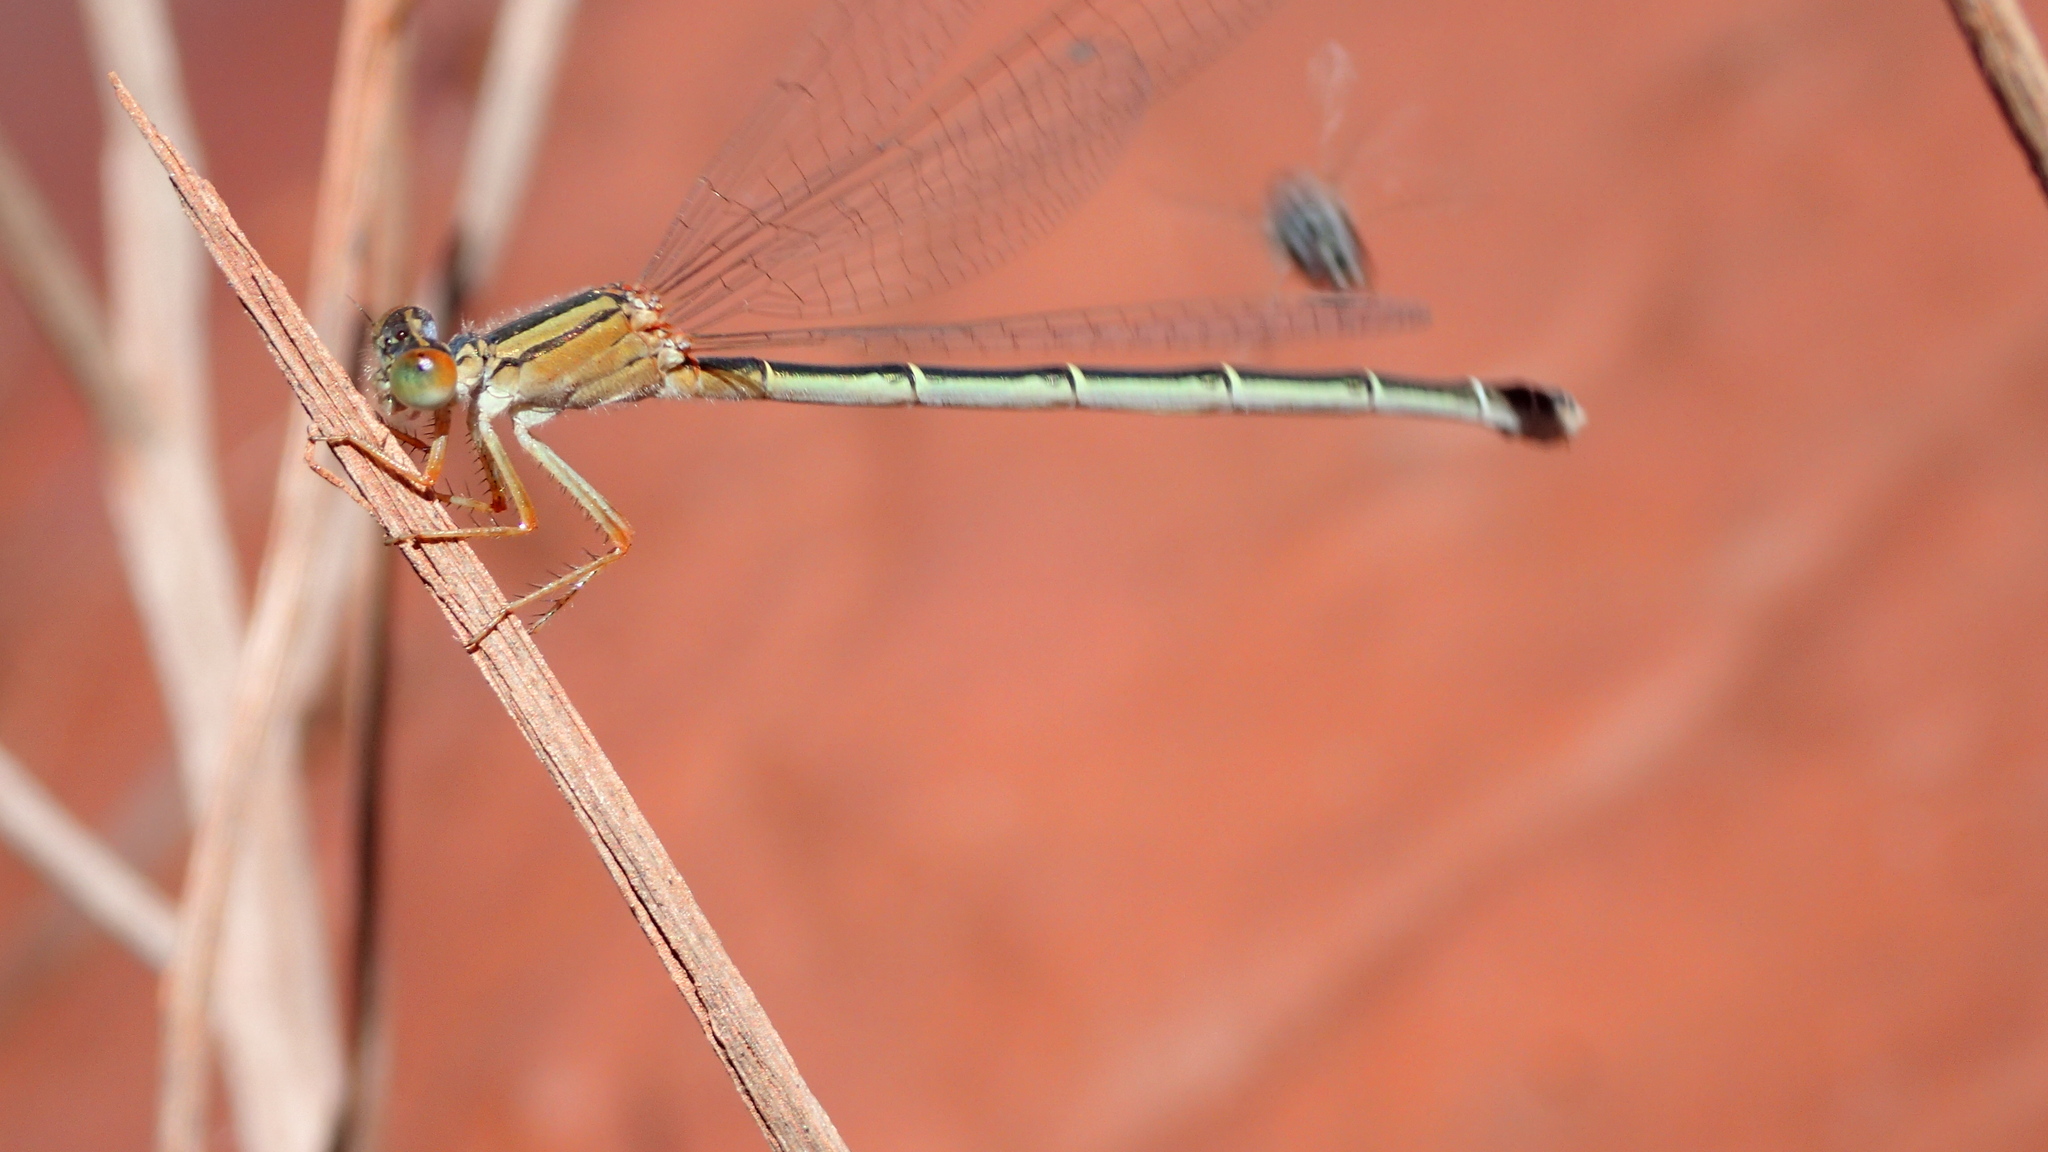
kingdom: Animalia
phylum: Arthropoda
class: Insecta
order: Odonata
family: Coenagrionidae
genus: Xanthagrion
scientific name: Xanthagrion erythroneurum
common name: Red and blue damsel
